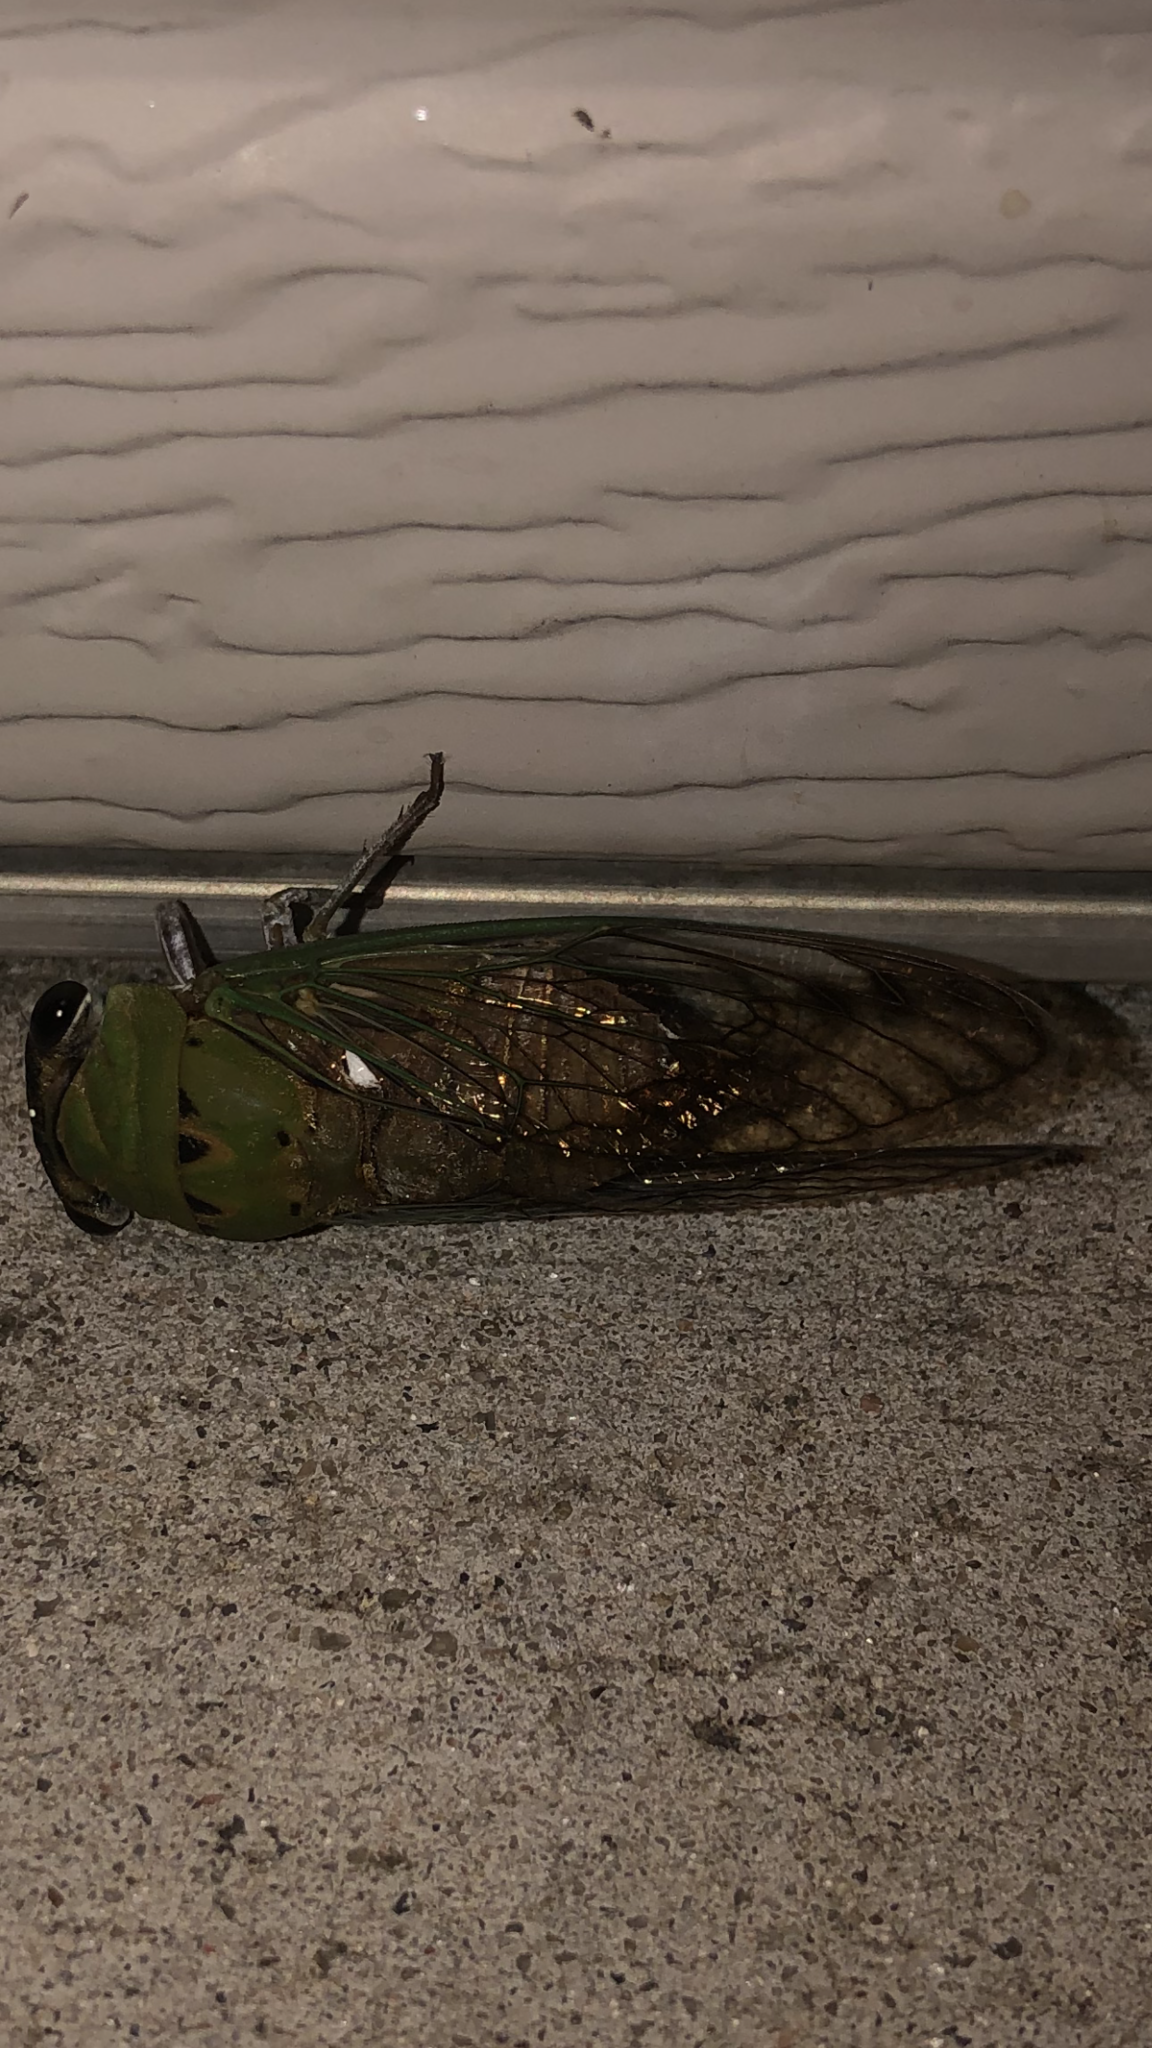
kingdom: Animalia
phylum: Arthropoda
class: Insecta
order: Hemiptera
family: Cicadidae
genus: Neotibicen
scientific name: Neotibicen superbus
